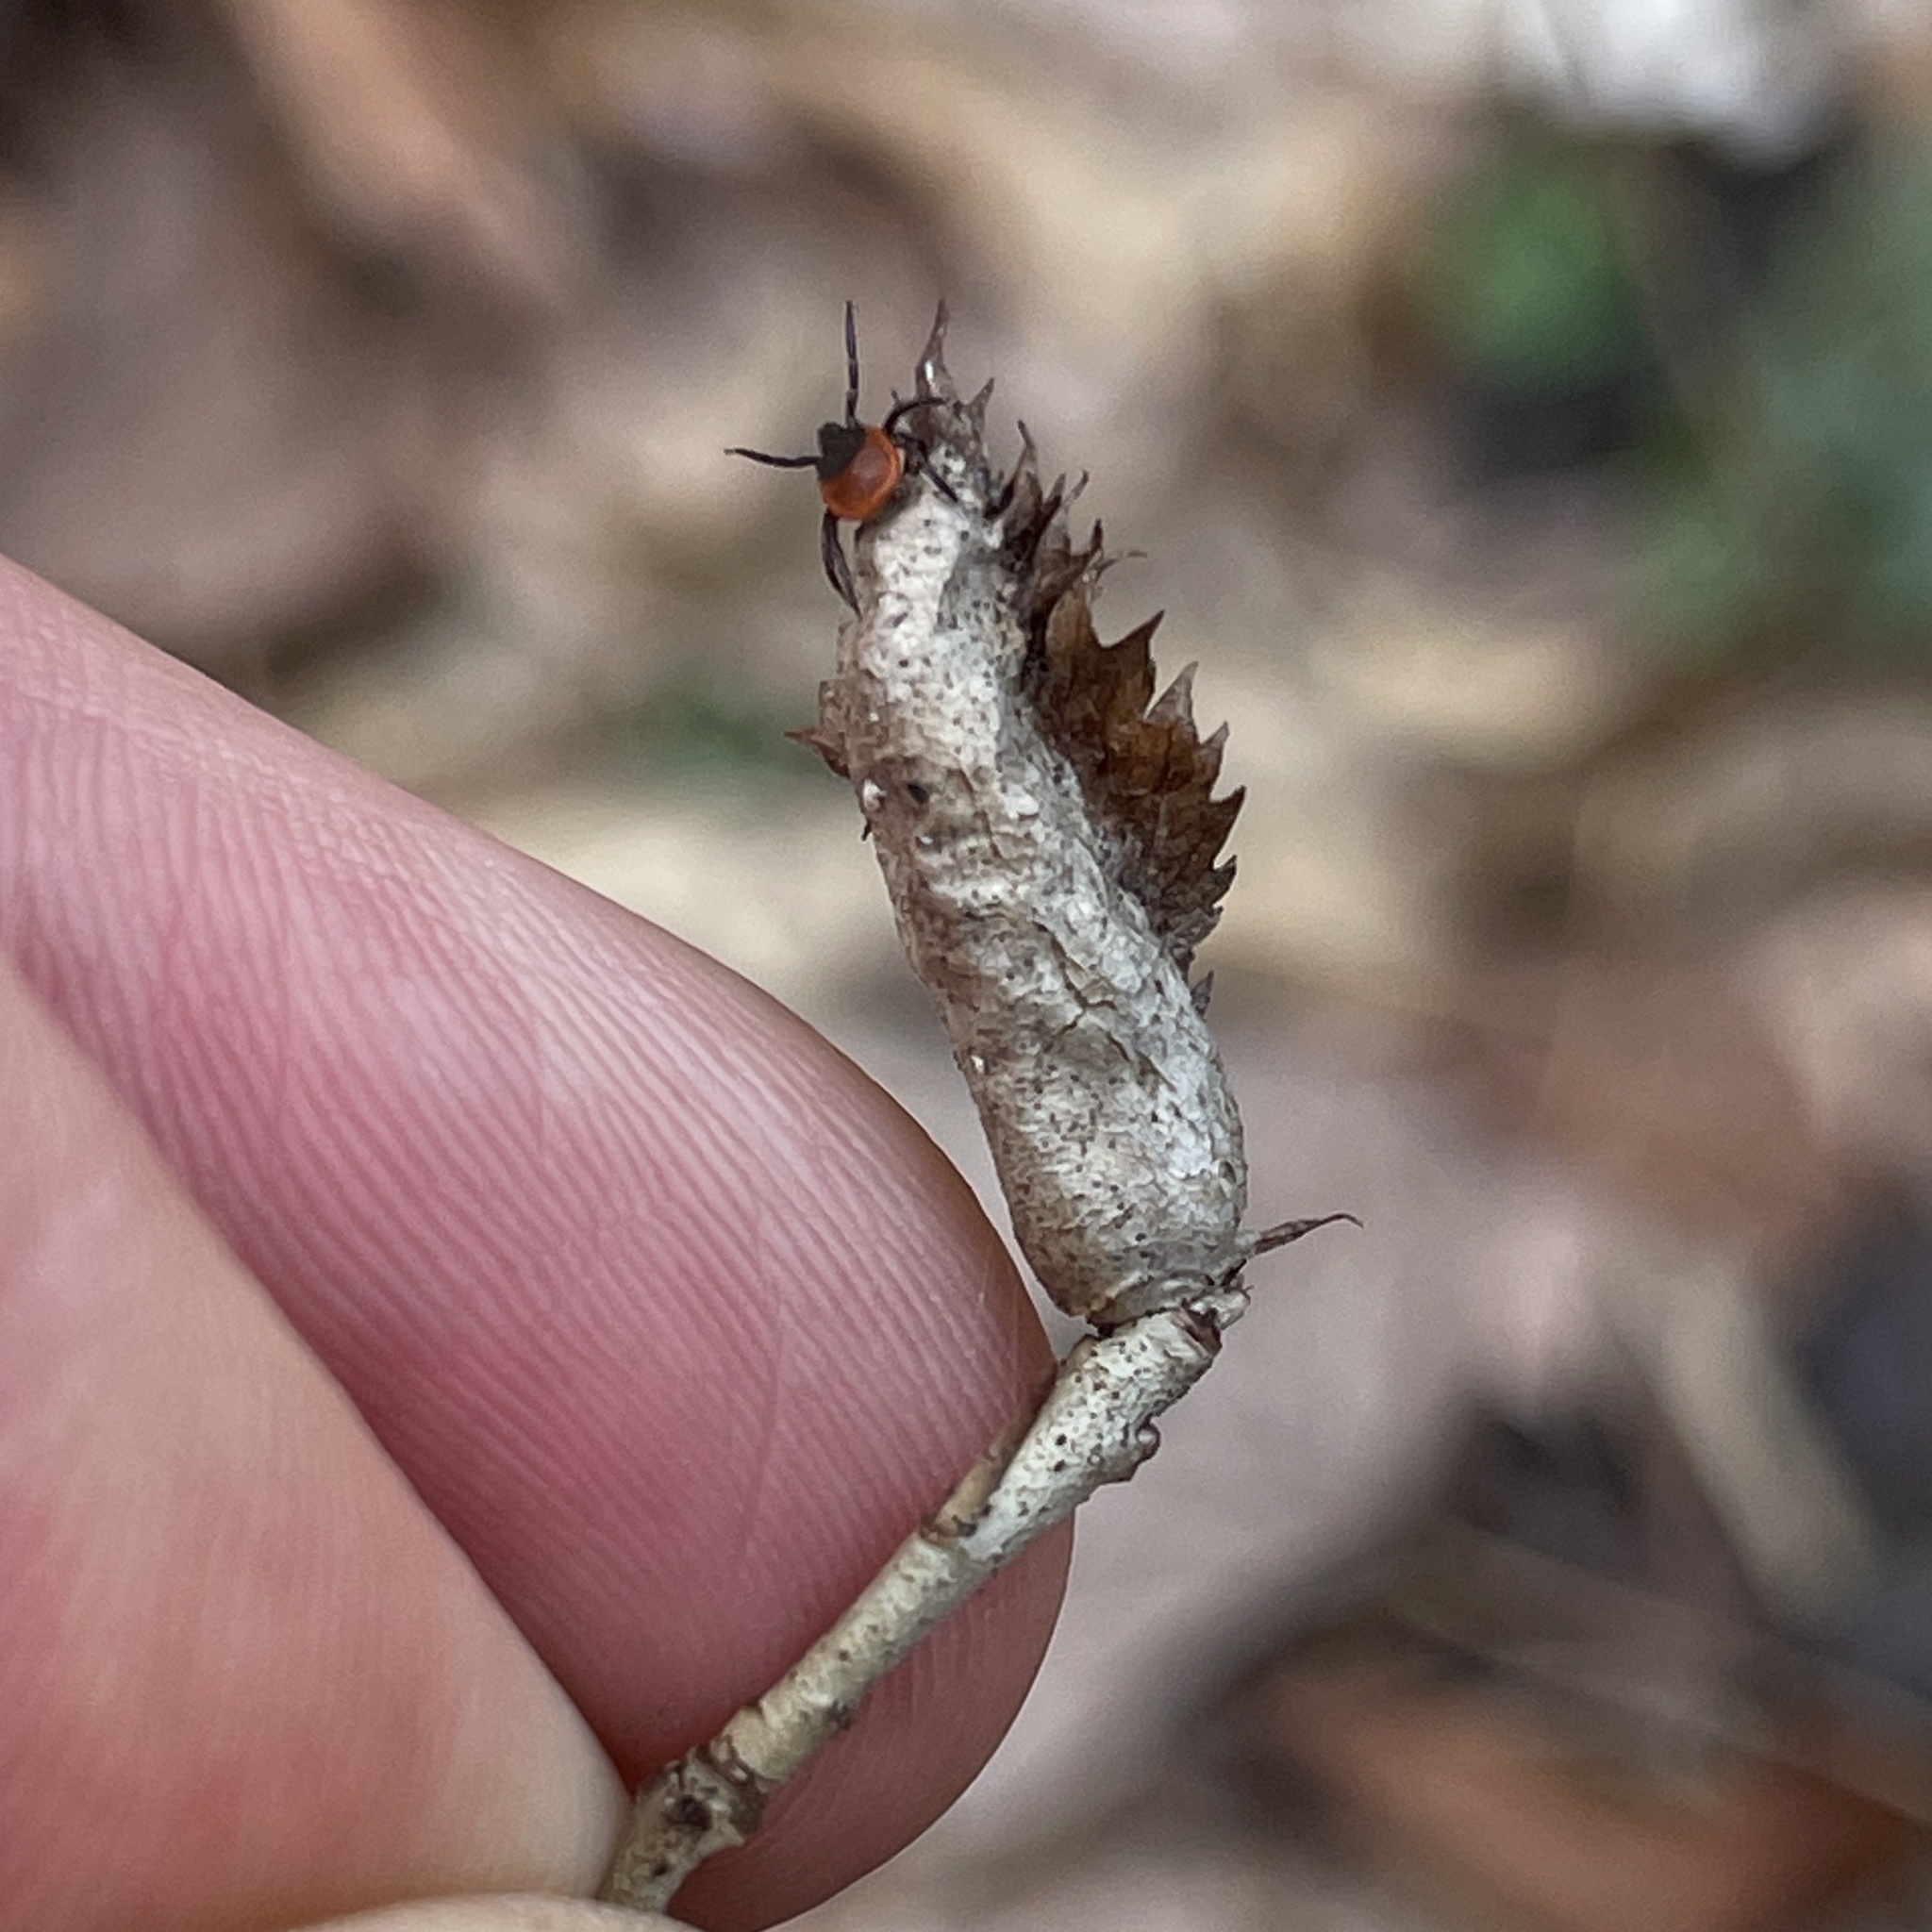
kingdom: Animalia
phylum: Arthropoda
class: Arachnida
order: Ixodida
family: Ixodidae
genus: Ixodes
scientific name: Ixodes scapularis
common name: Black legged tick
